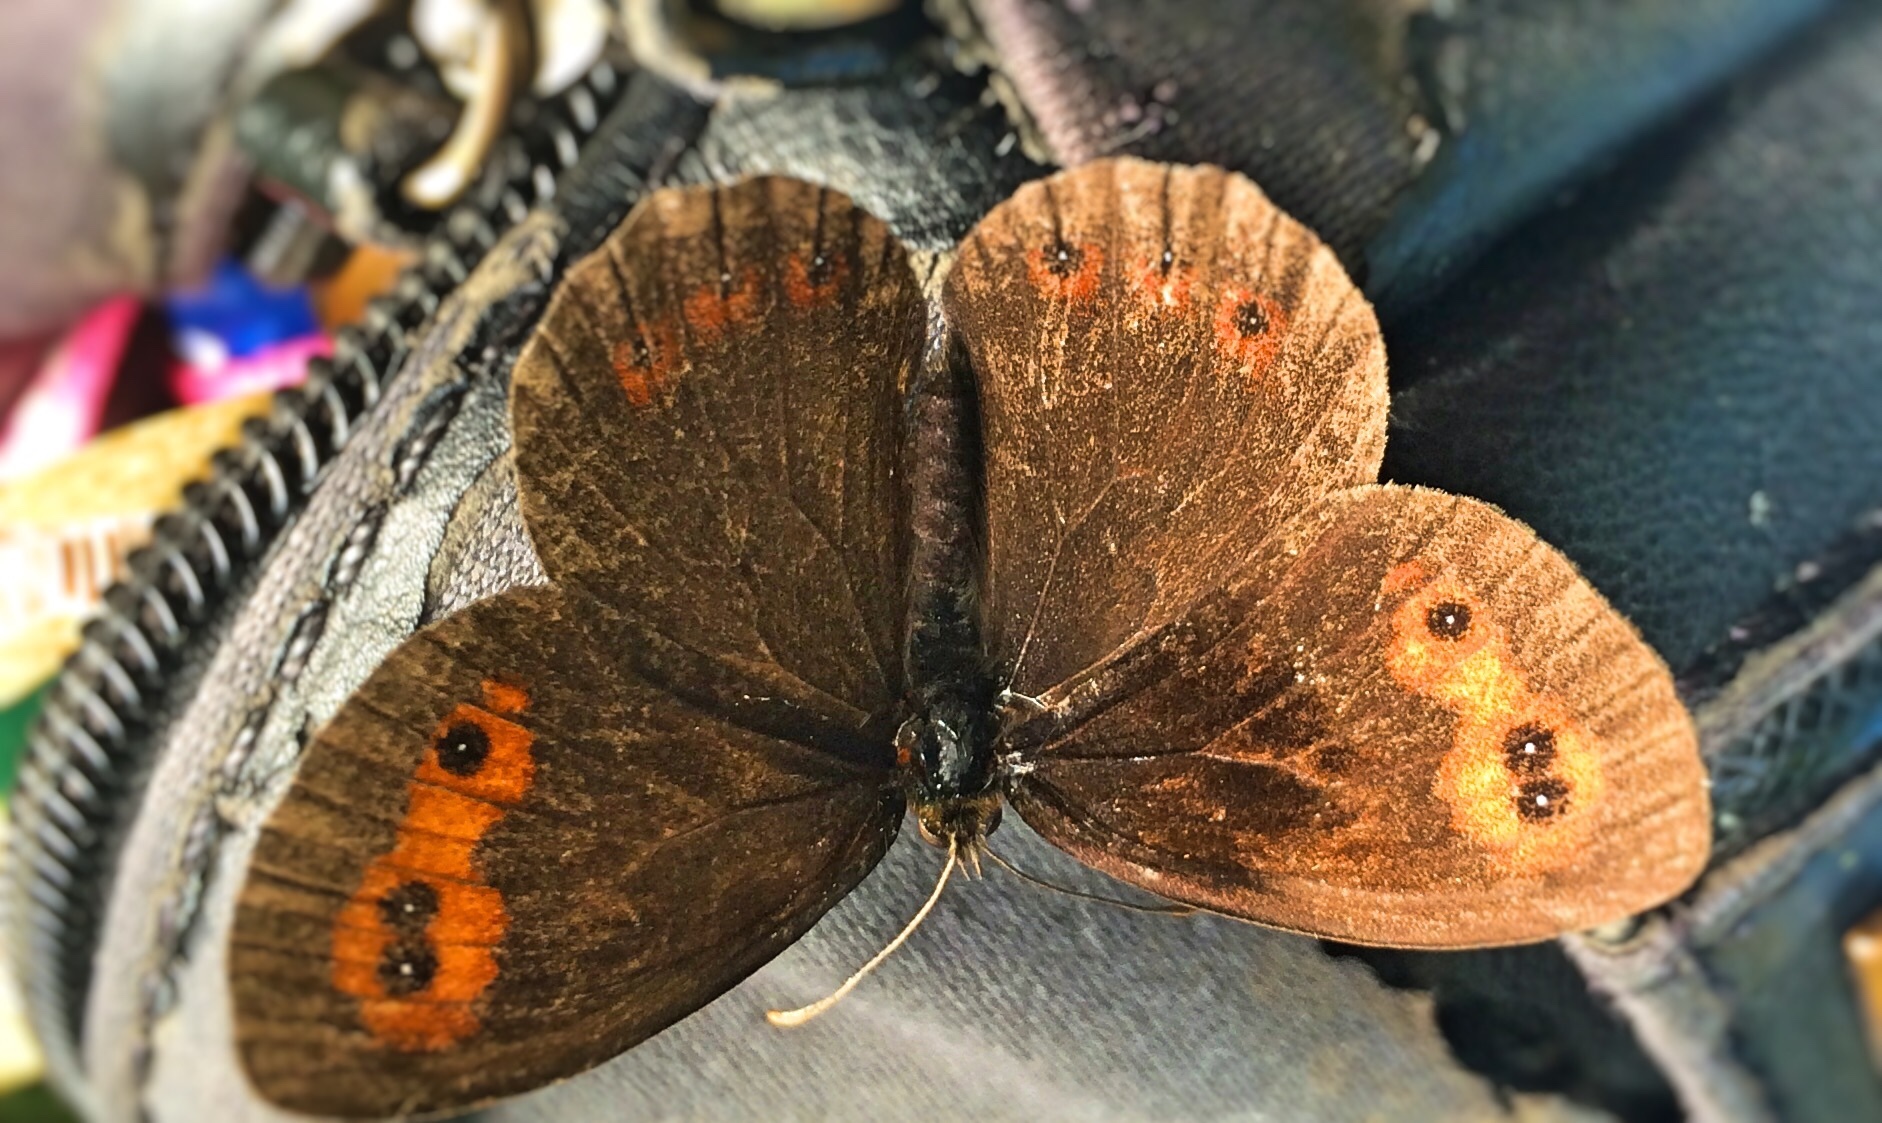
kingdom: Animalia
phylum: Arthropoda
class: Insecta
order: Lepidoptera
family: Nymphalidae
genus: Erebia
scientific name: Erebia aethiops
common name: Scotch argus
